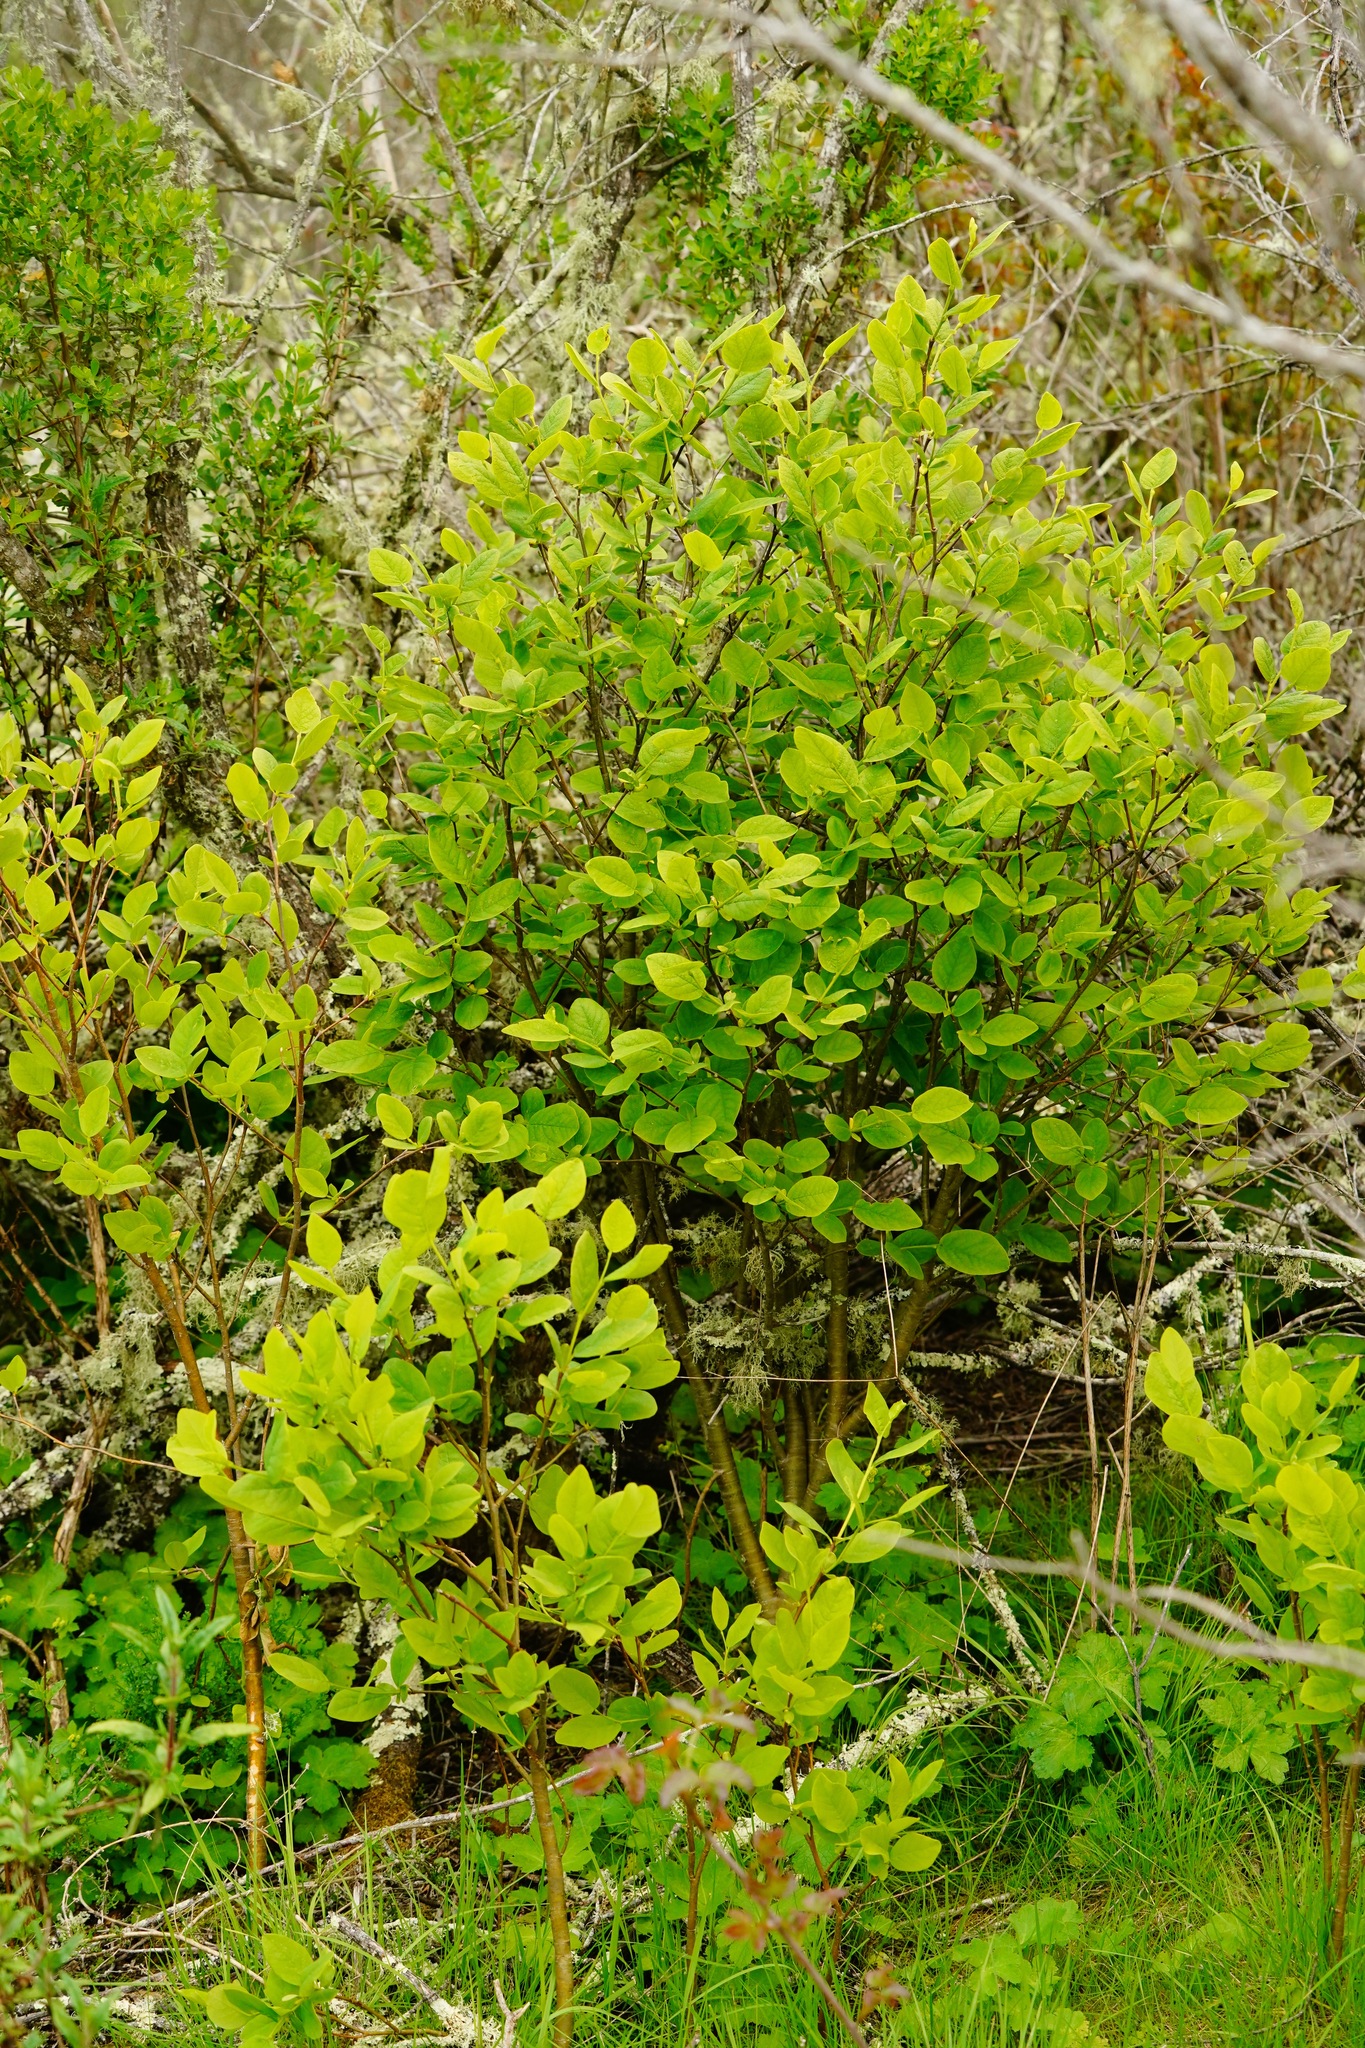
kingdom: Plantae
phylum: Tracheophyta
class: Magnoliopsida
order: Malvales
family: Thymelaeaceae
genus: Dirca
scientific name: Dirca occidentalis
